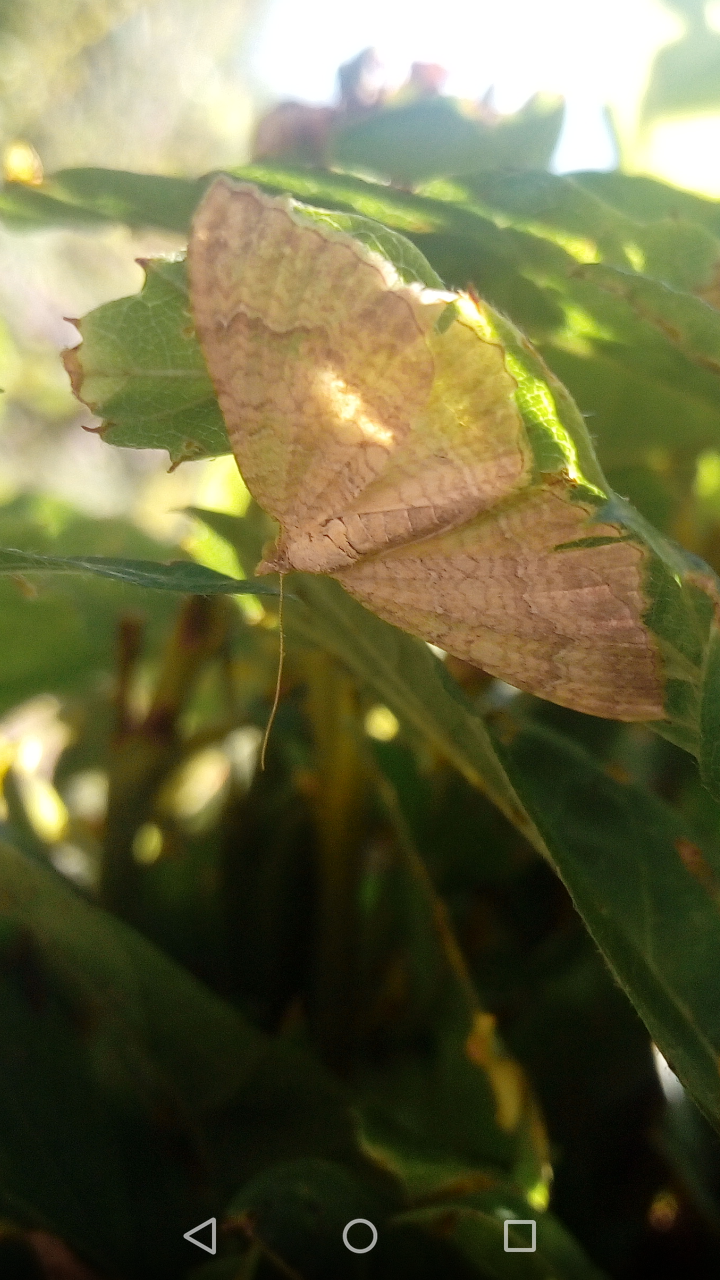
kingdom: Animalia
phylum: Arthropoda
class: Insecta
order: Lepidoptera
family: Geometridae
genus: Camptogramma
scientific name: Camptogramma bilineata
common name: Yellow shell
